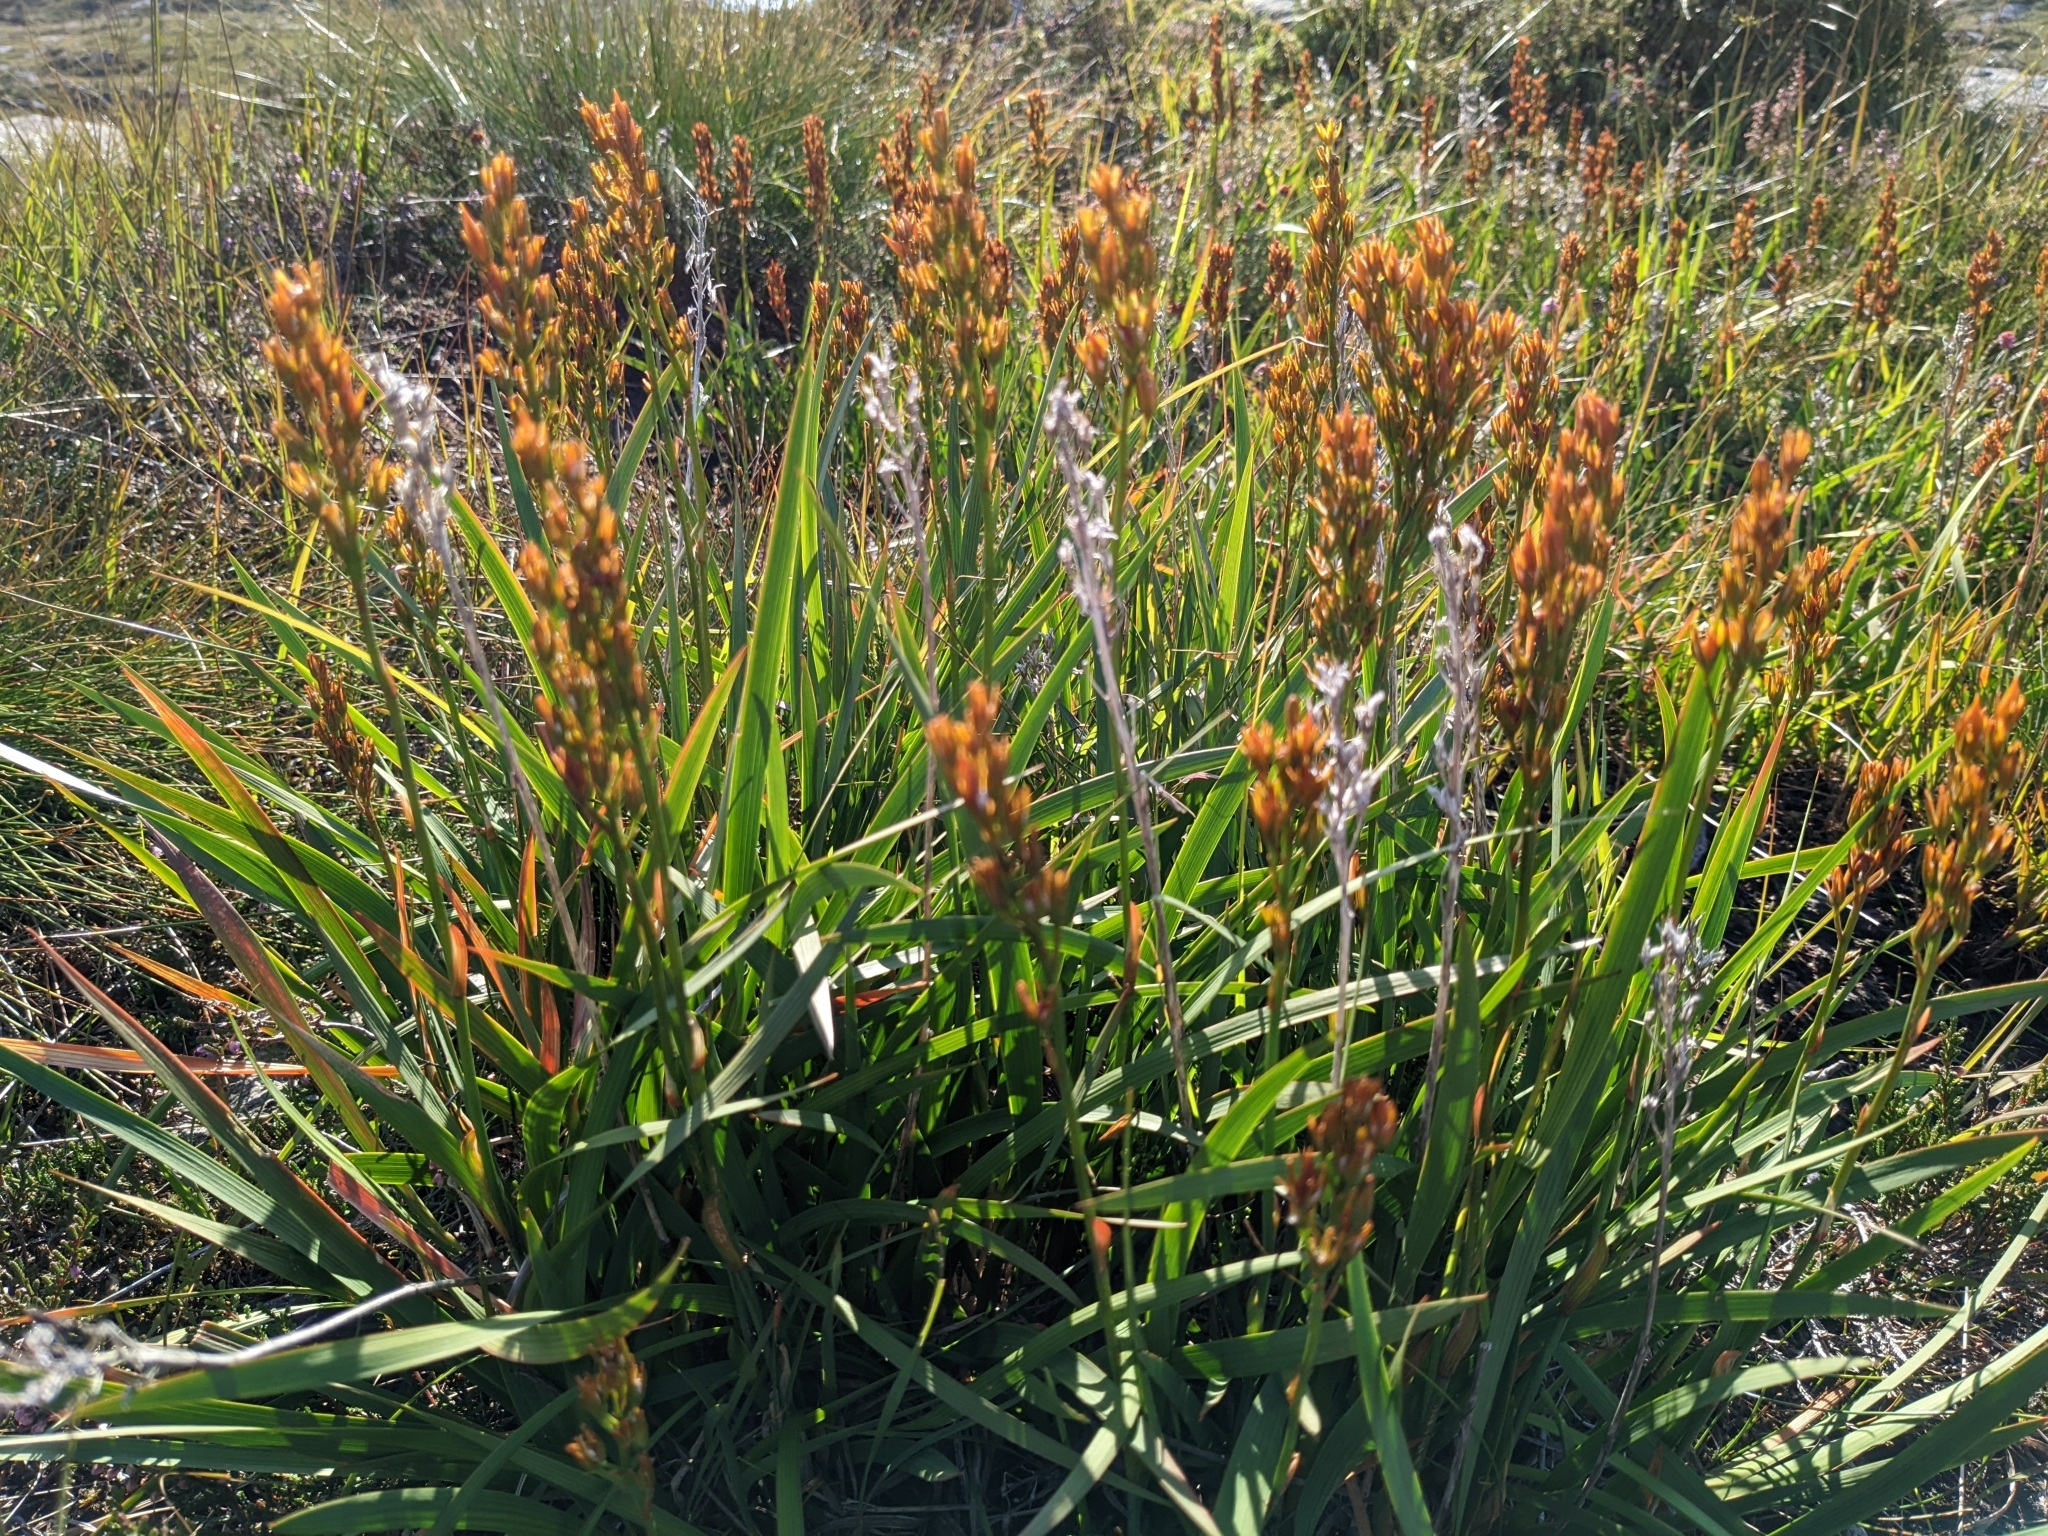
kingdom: Plantae
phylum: Tracheophyta
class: Liliopsida
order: Dioscoreales
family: Nartheciaceae
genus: Narthecium
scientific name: Narthecium ossifragum
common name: Bog asphodel
